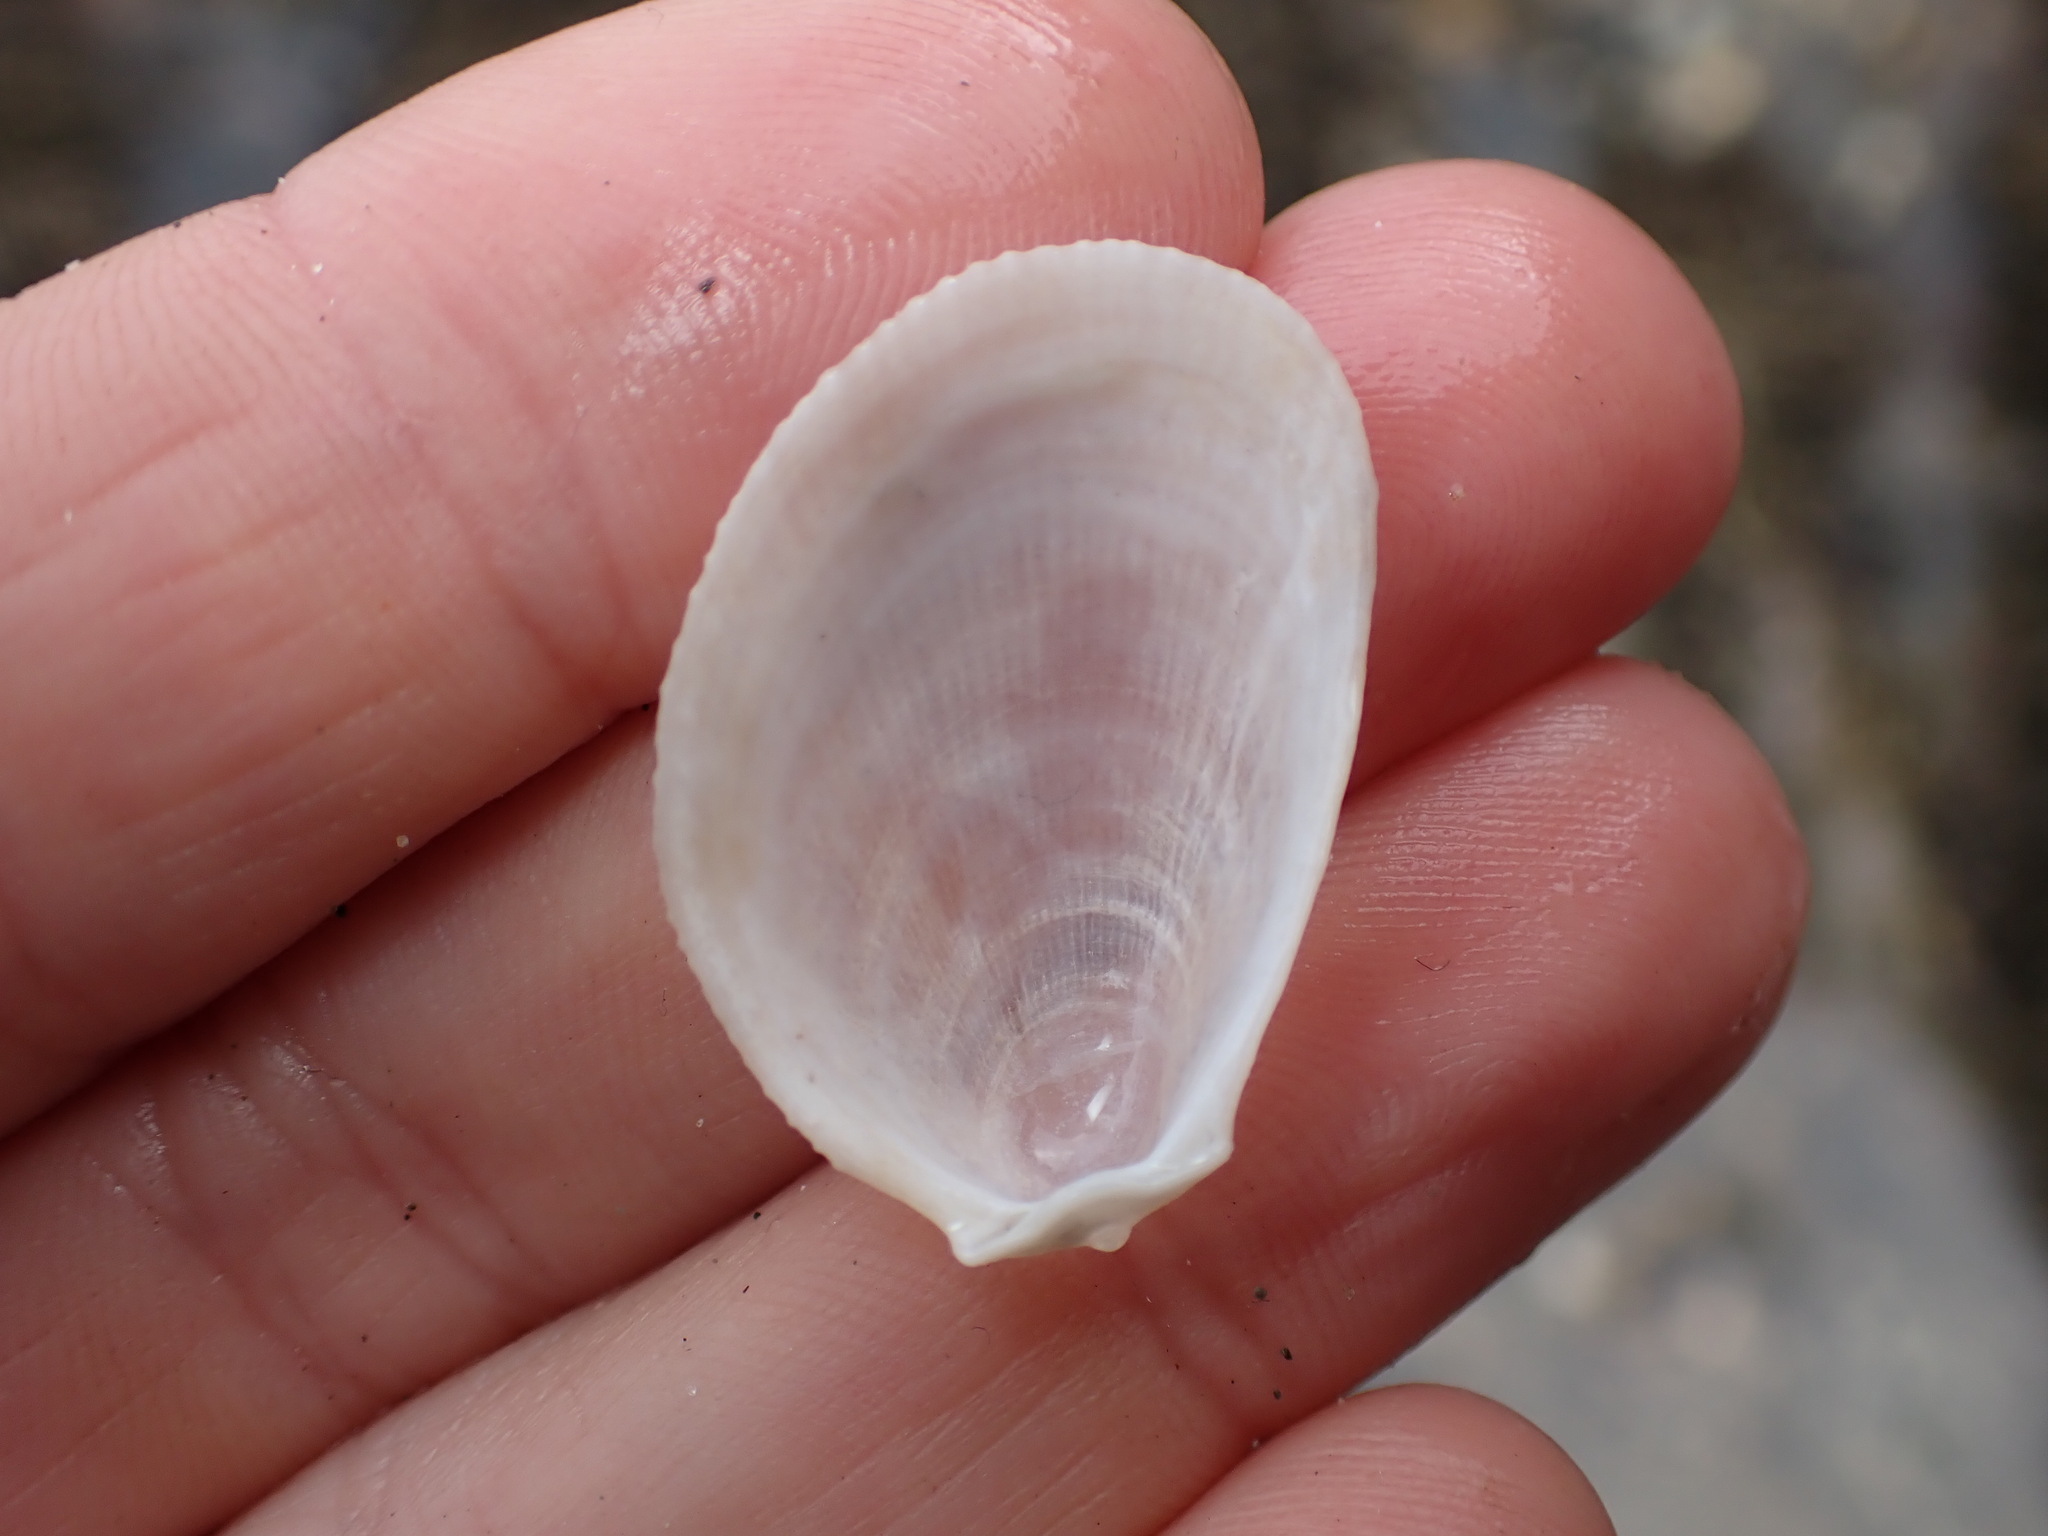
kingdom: Animalia
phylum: Mollusca
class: Bivalvia
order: Limida
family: Limidae
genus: Limaria
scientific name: Limaria orientalis
